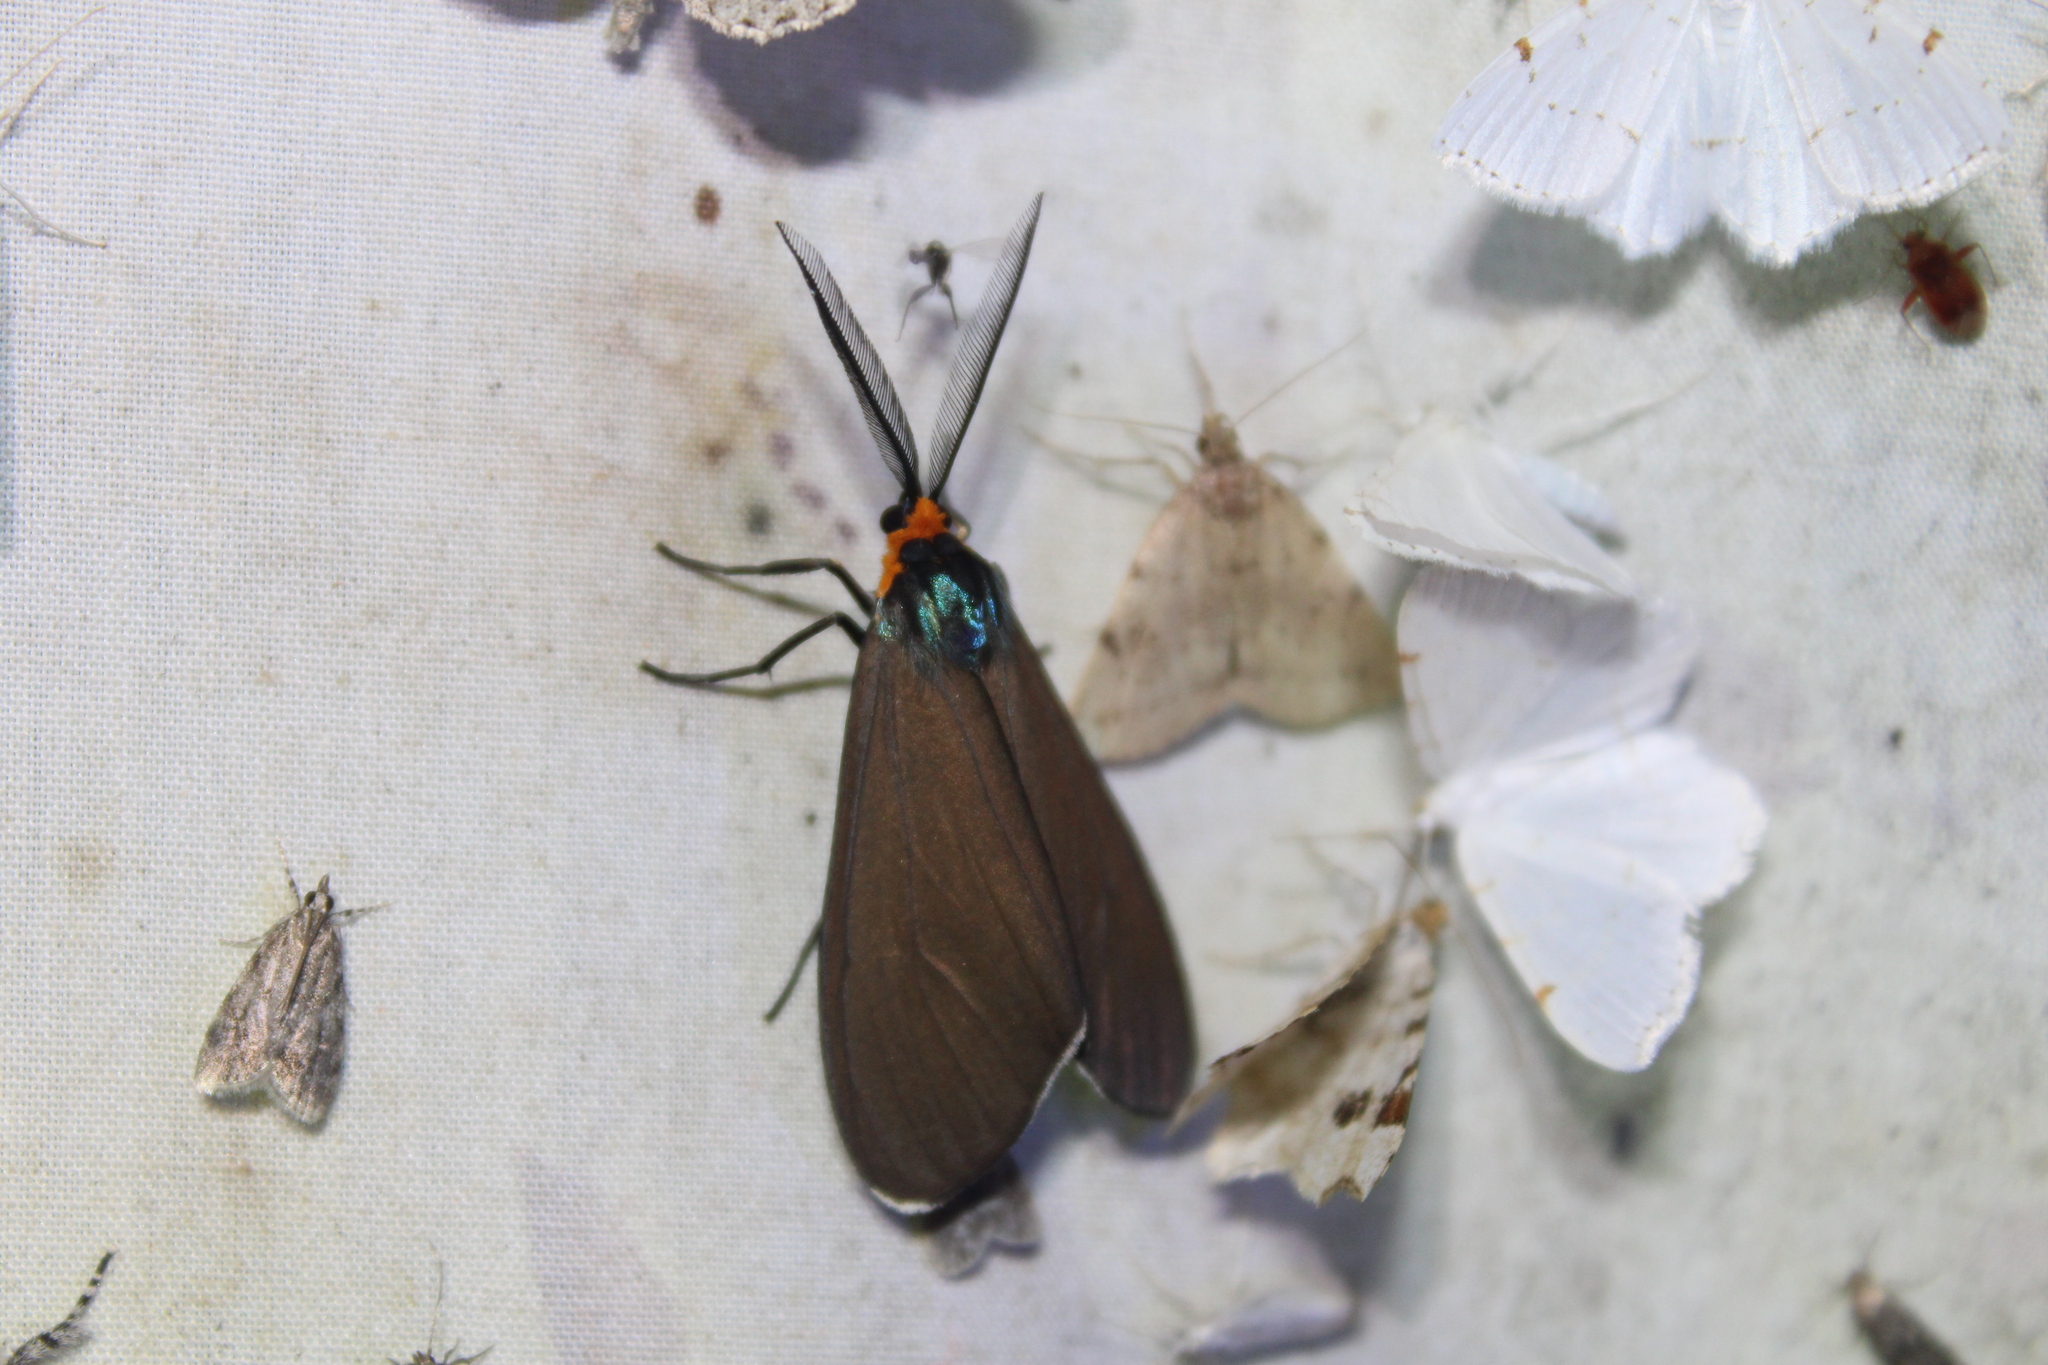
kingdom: Animalia
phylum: Arthropoda
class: Insecta
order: Lepidoptera
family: Erebidae
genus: Ctenucha
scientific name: Ctenucha virginica
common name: Virginia ctenucha moth
